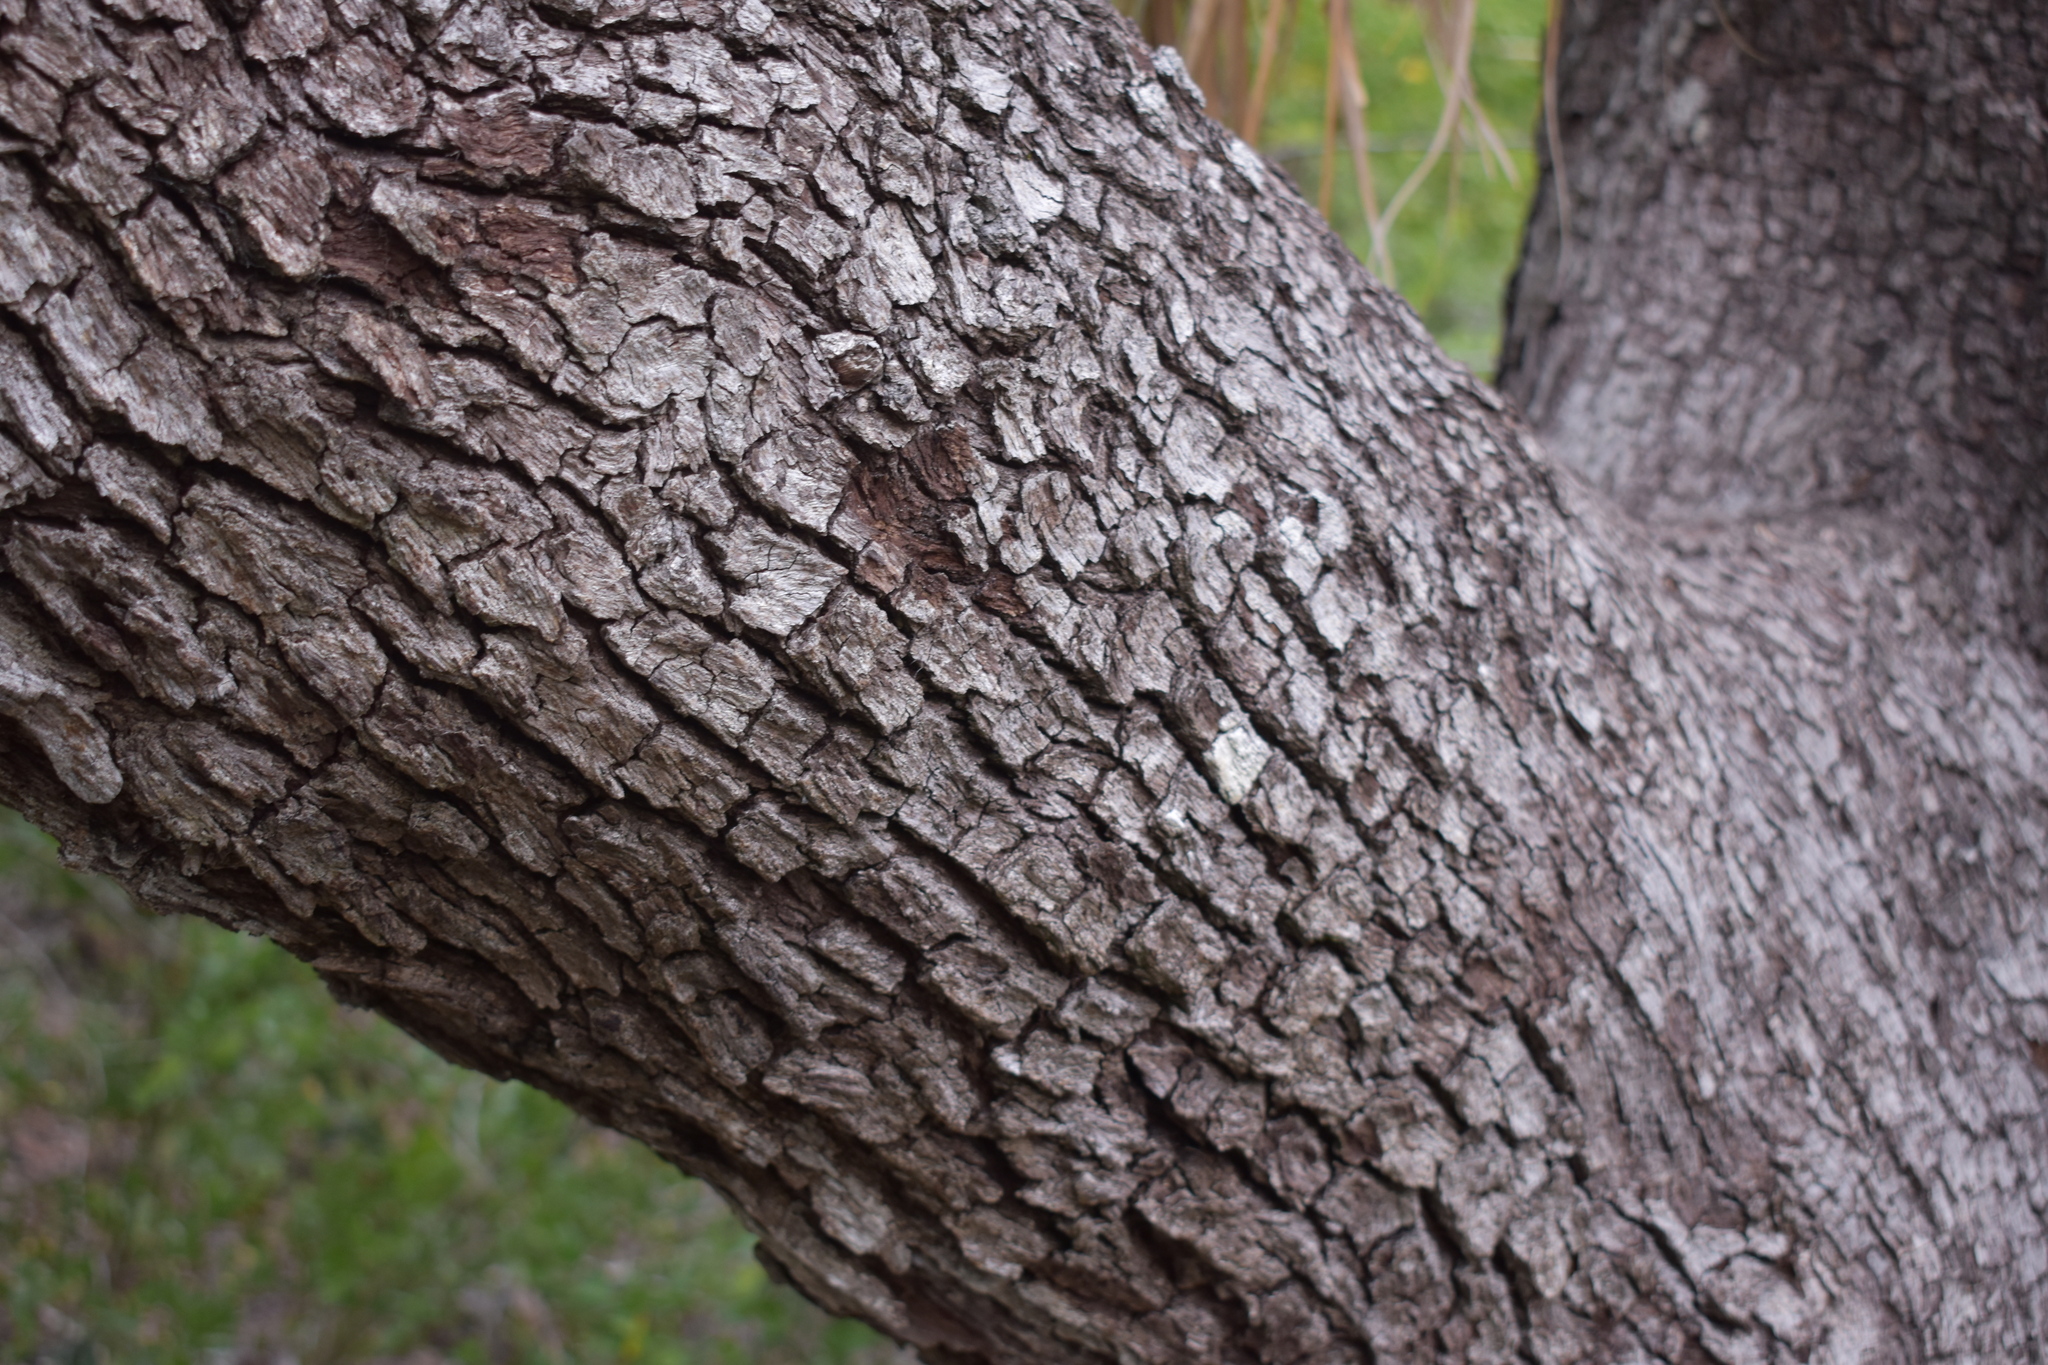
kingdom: Plantae
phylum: Tracheophyta
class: Magnoliopsida
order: Fagales
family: Fagaceae
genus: Quercus
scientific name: Quercus virginiana
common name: Southern live oak
